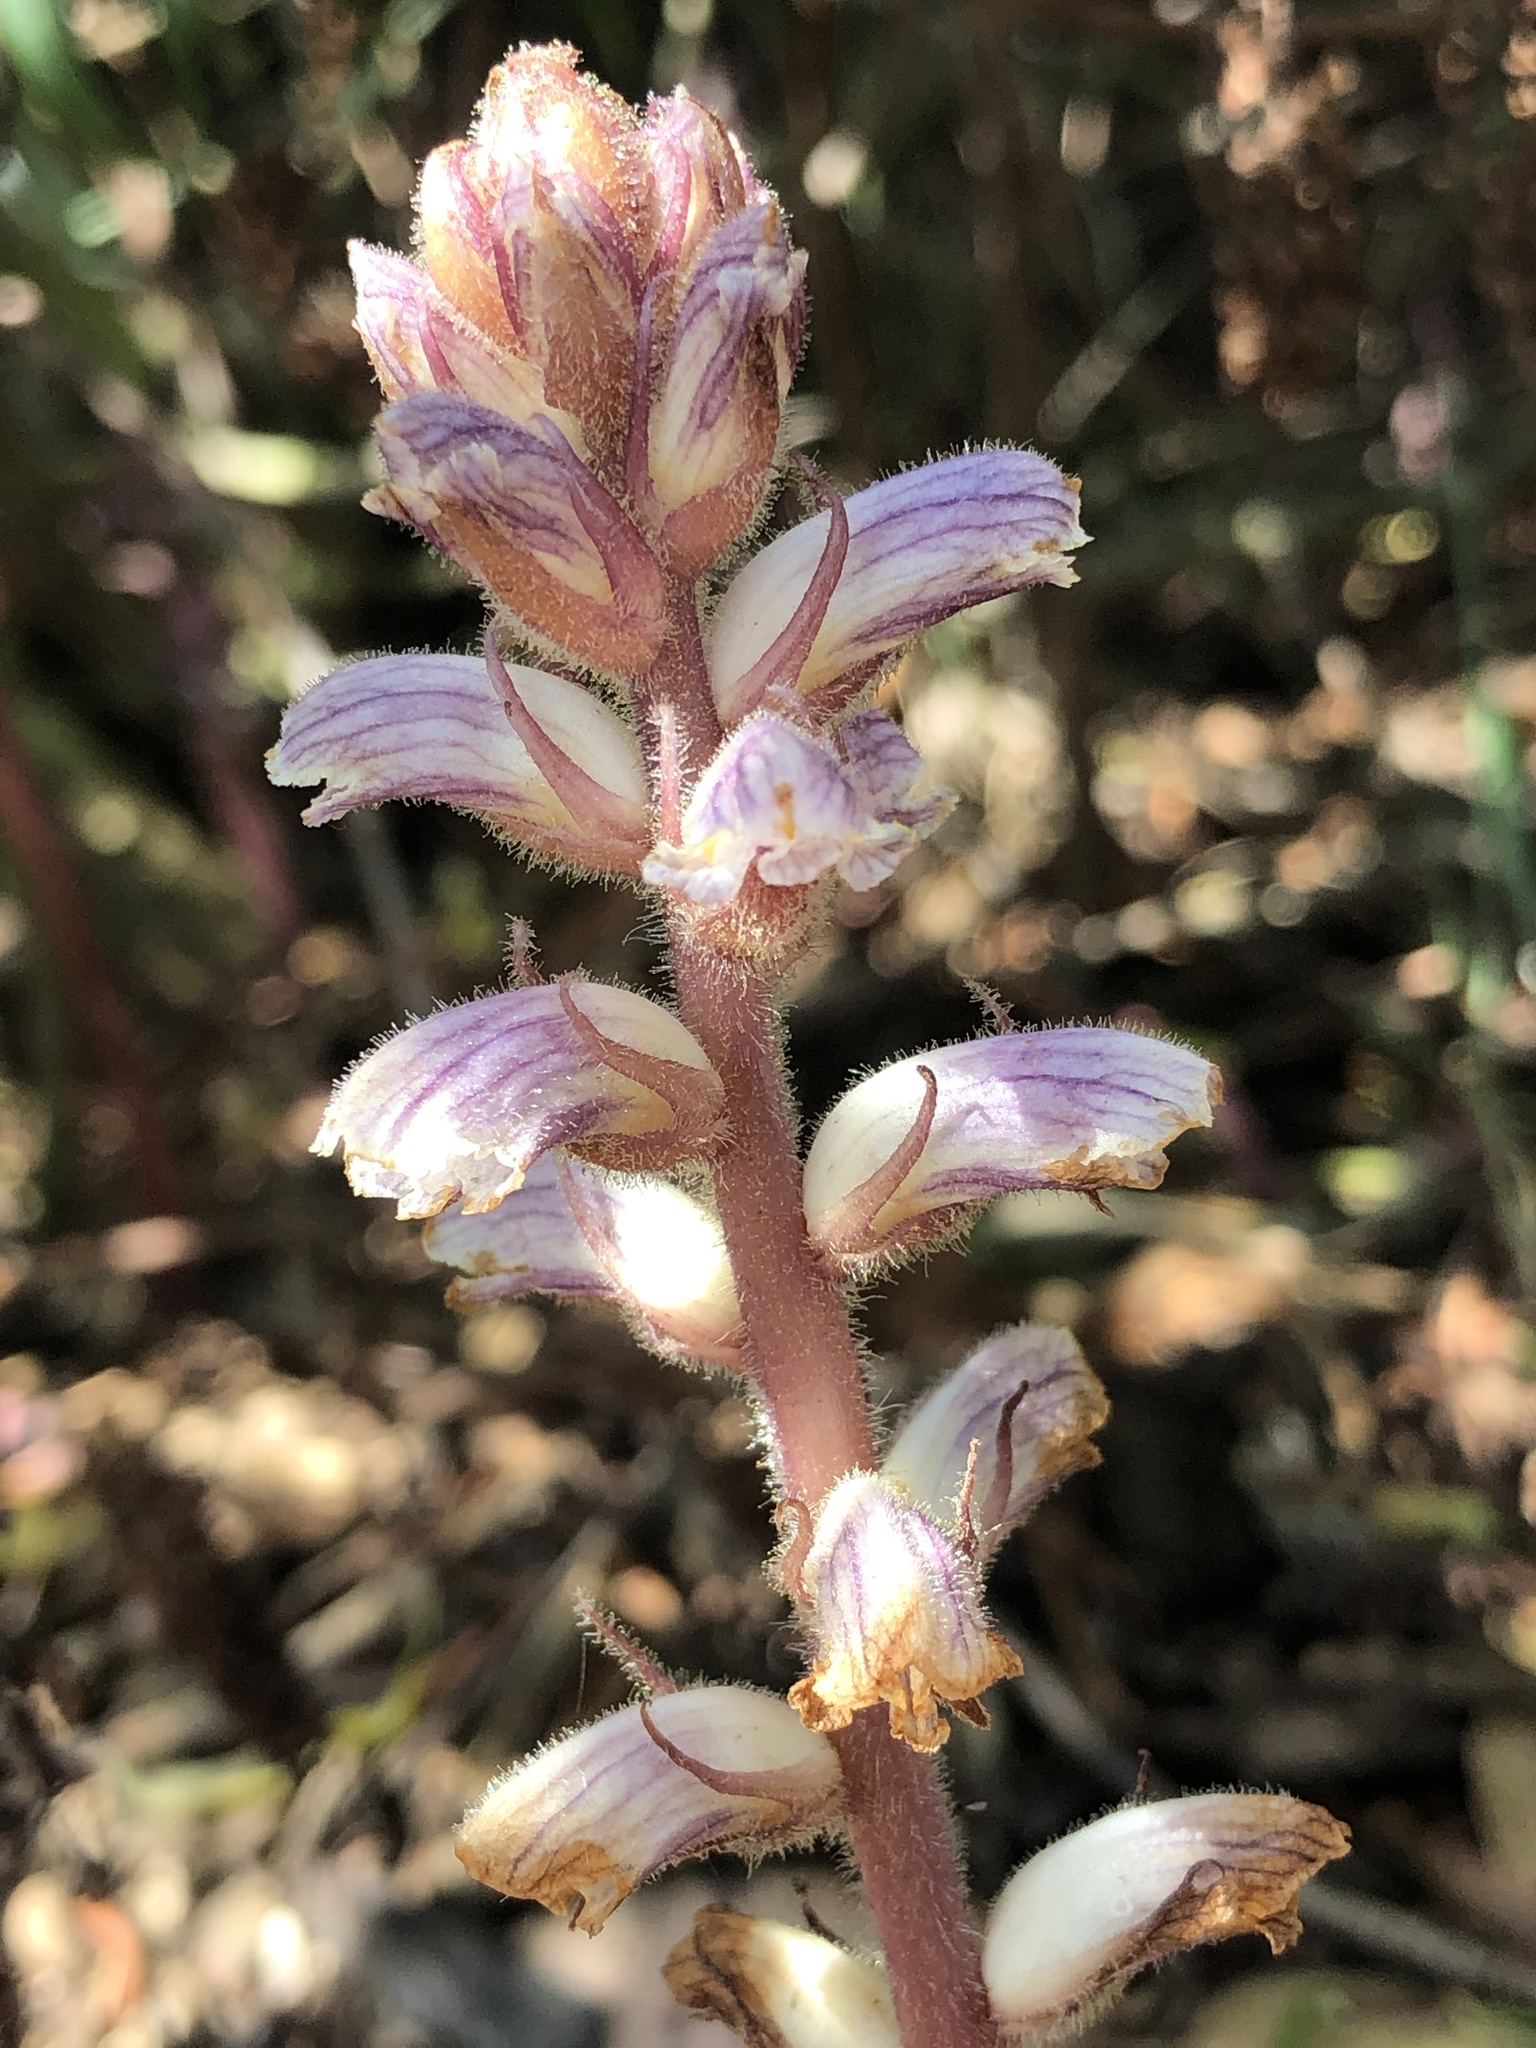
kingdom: Plantae
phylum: Tracheophyta
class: Magnoliopsida
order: Lamiales
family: Orobanchaceae
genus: Orobanche
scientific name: Orobanche minor
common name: Common broomrape
